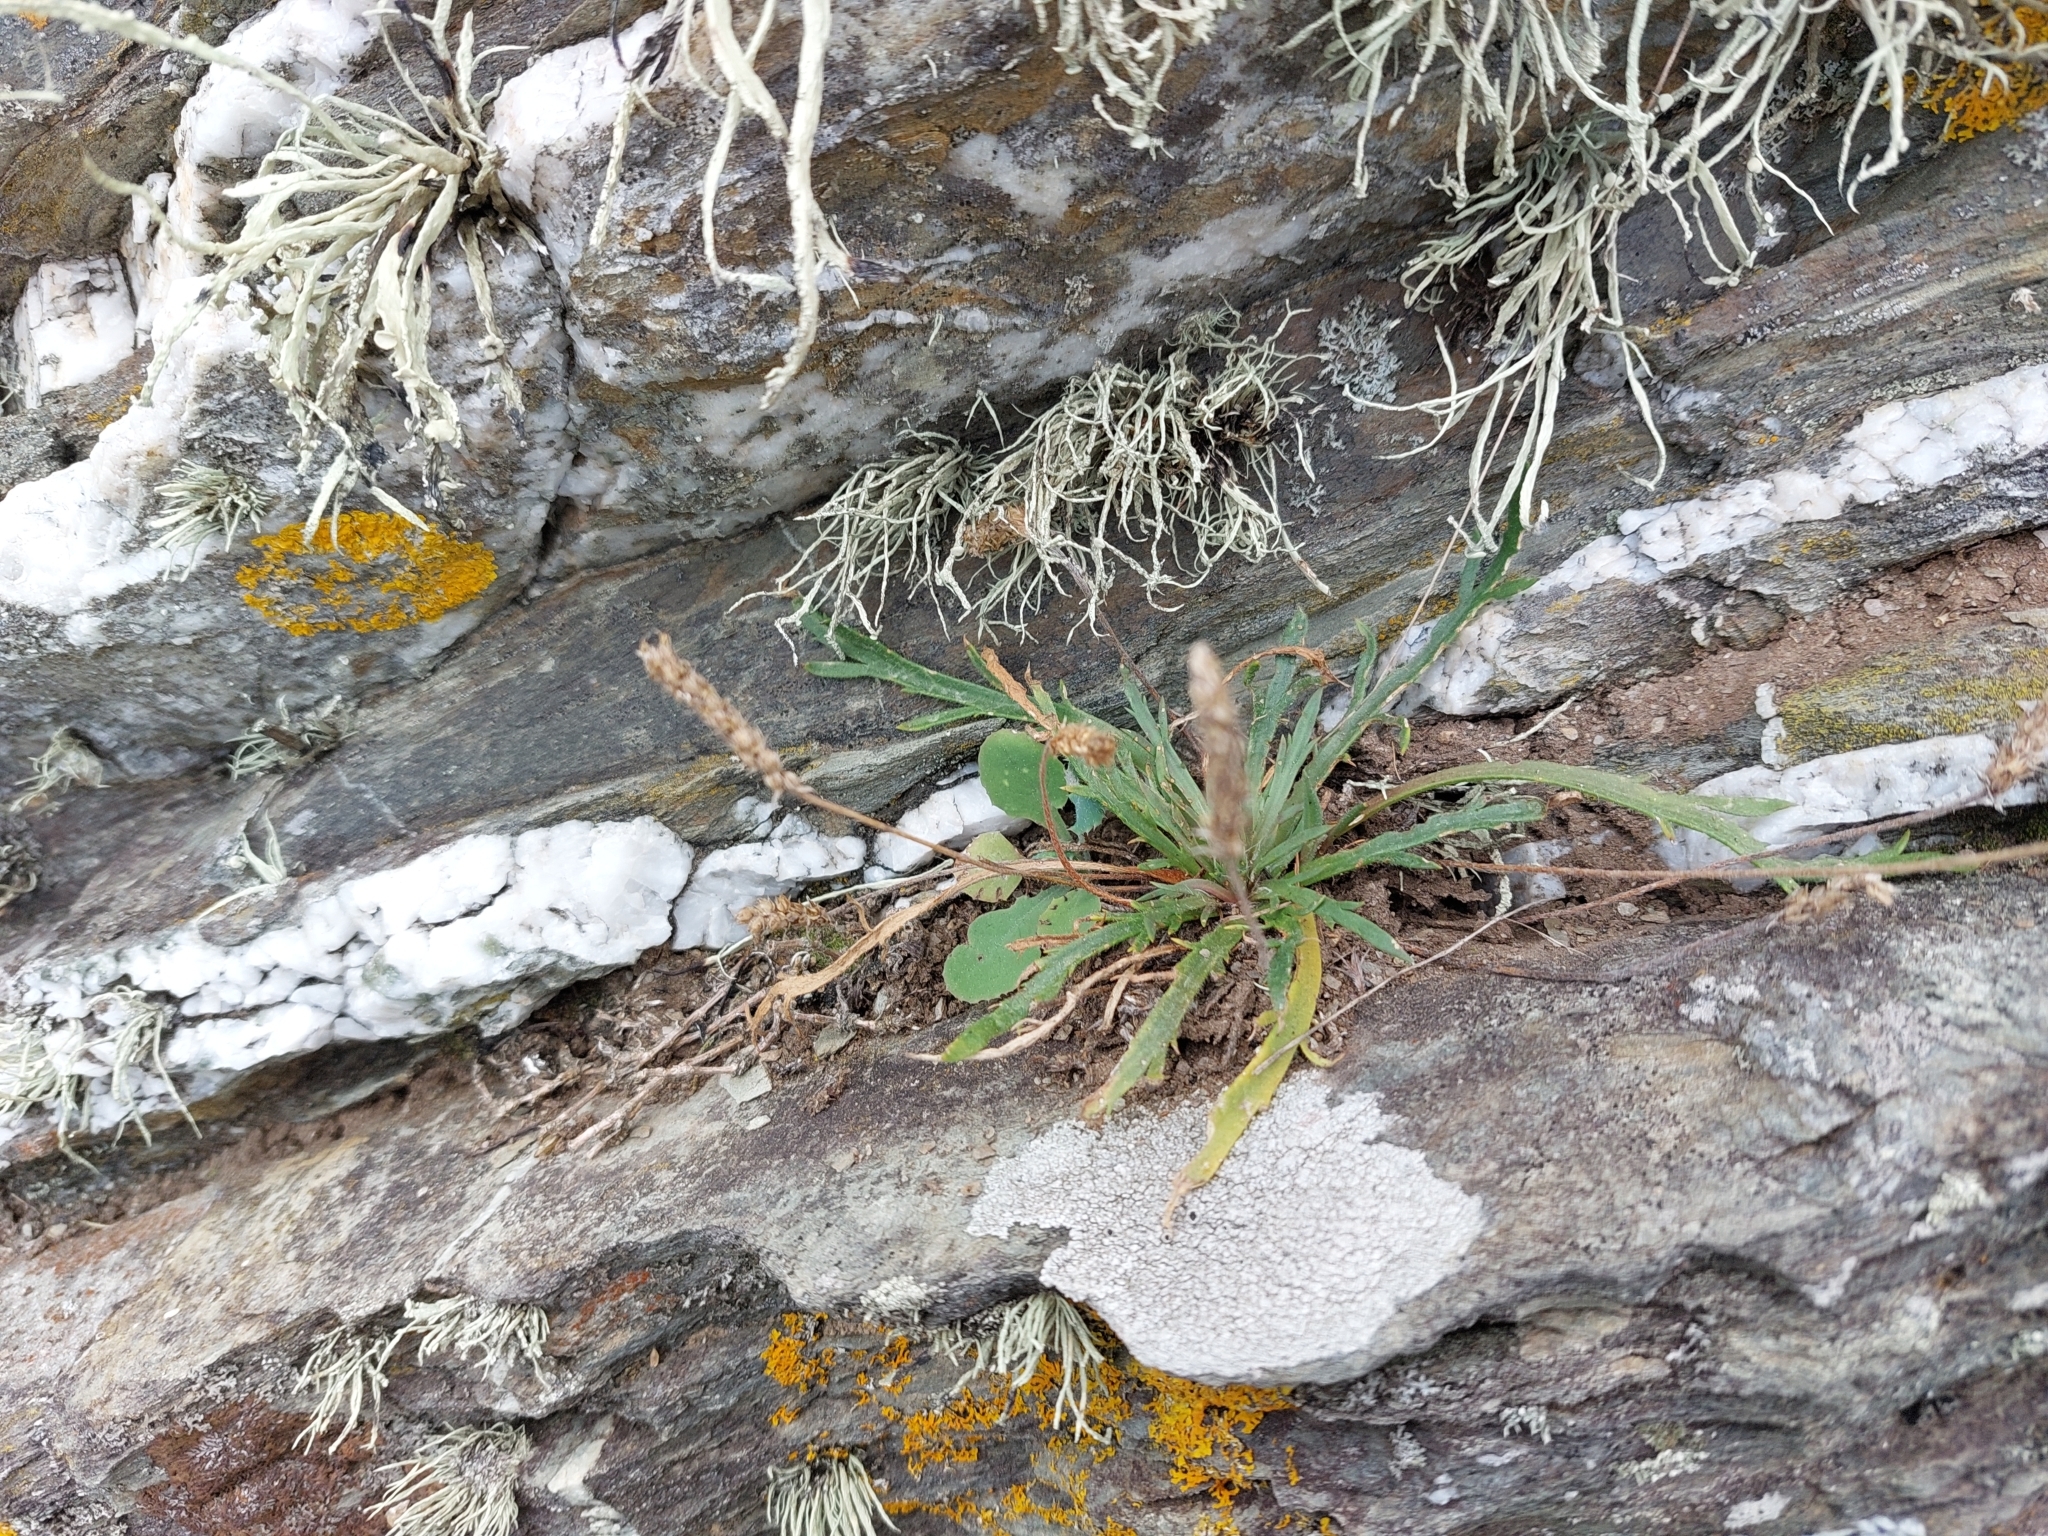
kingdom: Plantae
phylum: Tracheophyta
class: Magnoliopsida
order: Lamiales
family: Plantaginaceae
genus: Plantago
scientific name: Plantago coronopus
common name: Buck's-horn plantain
